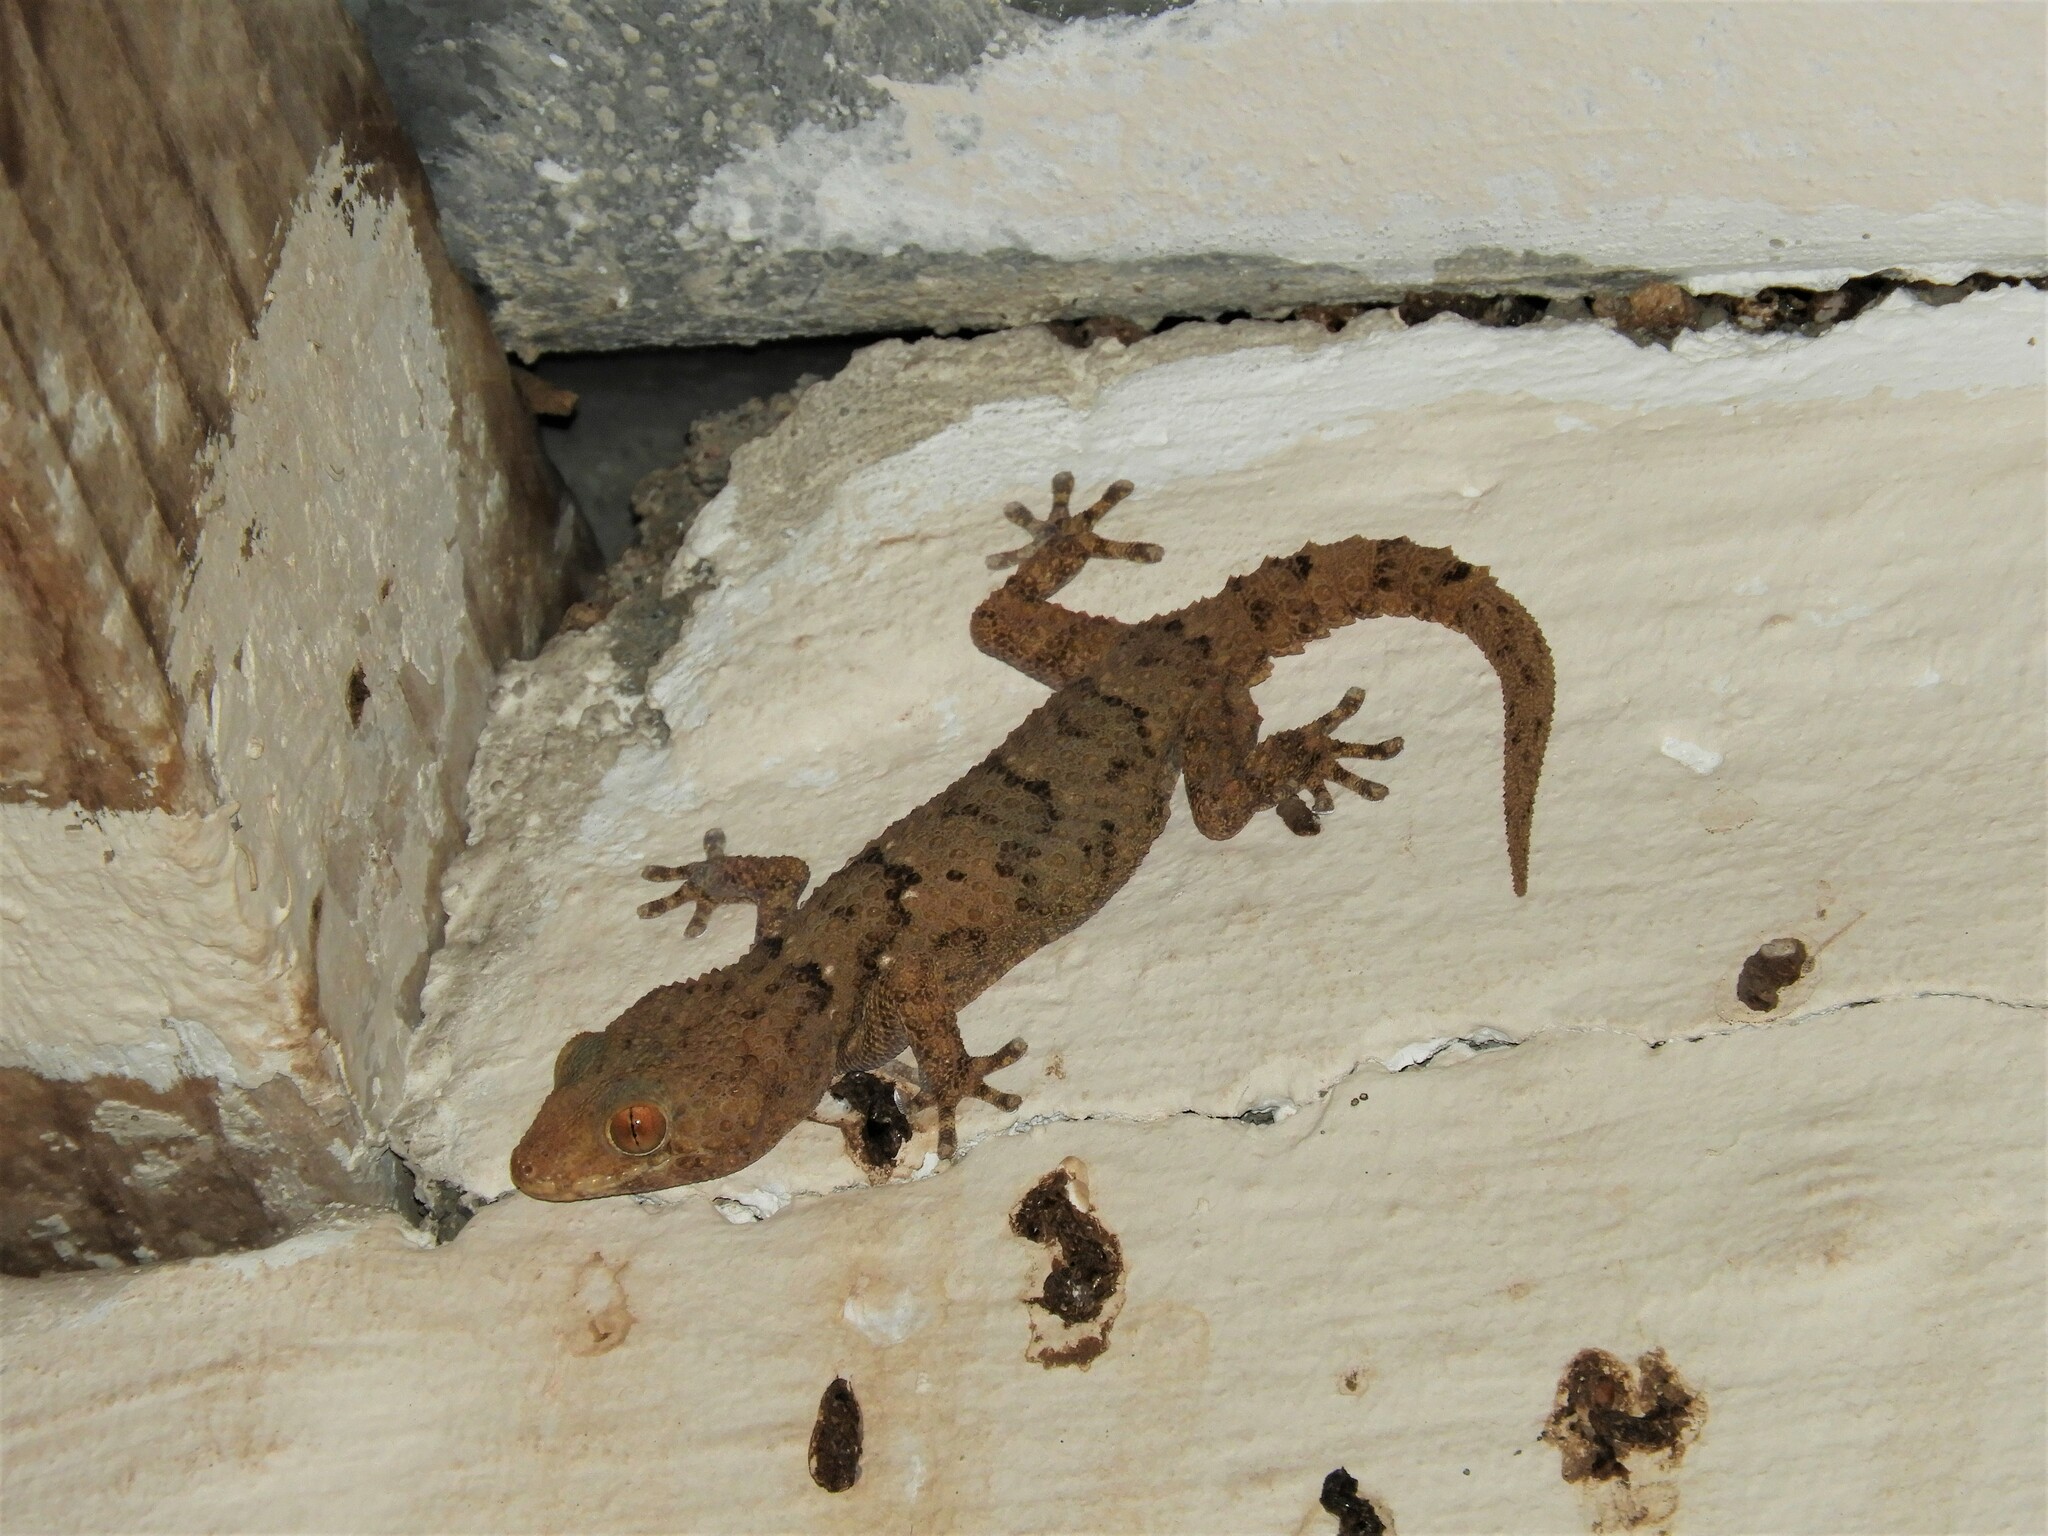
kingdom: Animalia
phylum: Chordata
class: Squamata
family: Gekkonidae
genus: Chondrodactylus
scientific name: Chondrodactylus laevigatus
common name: Fischer's thick-toed gecko
